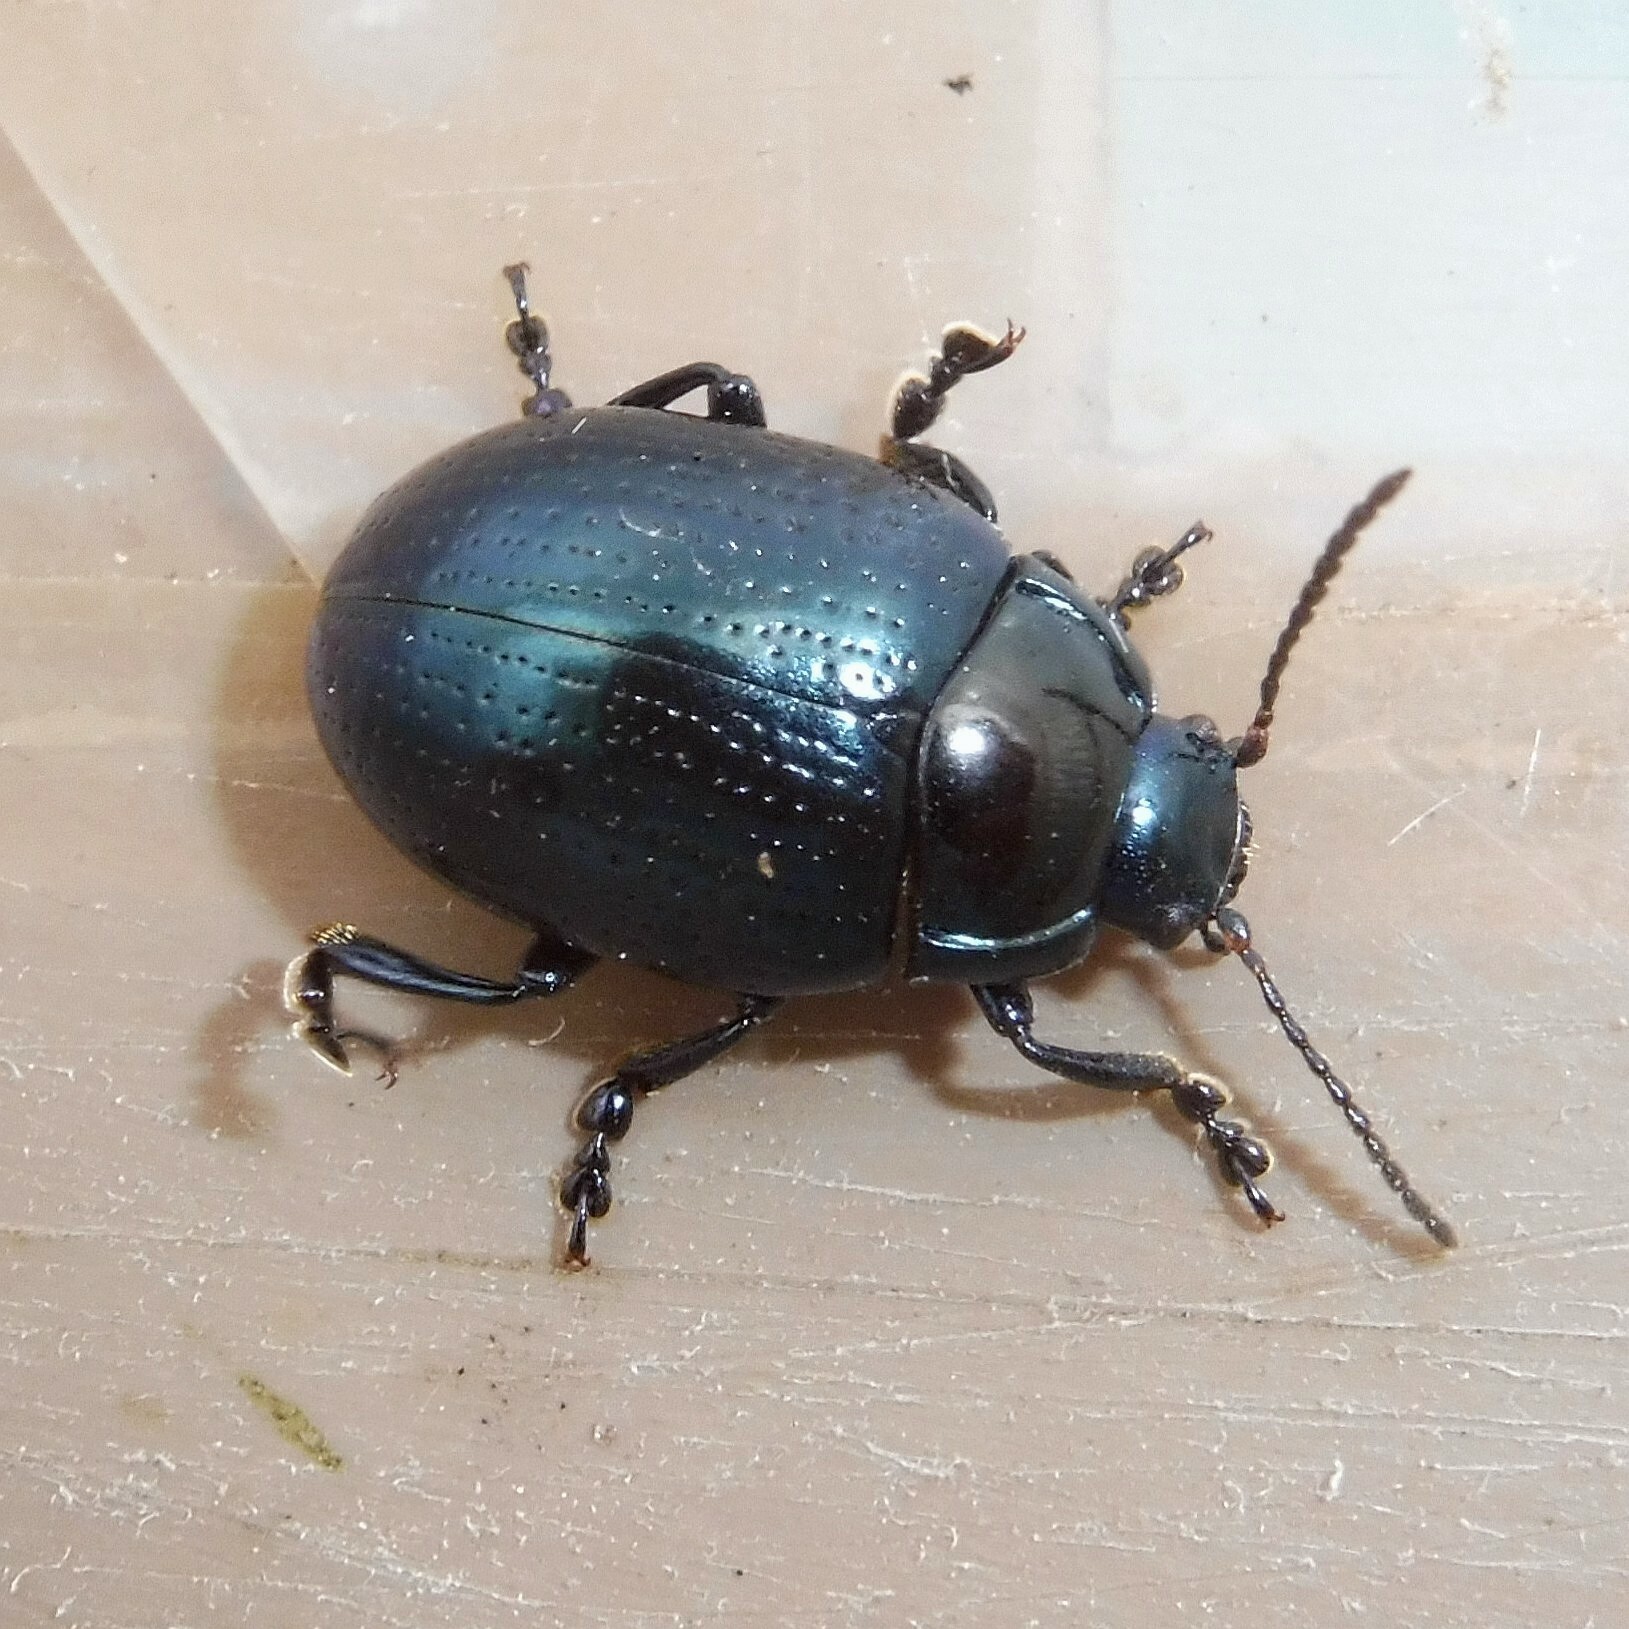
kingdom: Animalia
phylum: Arthropoda
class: Insecta
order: Coleoptera
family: Chrysomelidae
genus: Chrysolina
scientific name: Chrysolina oricalcia
